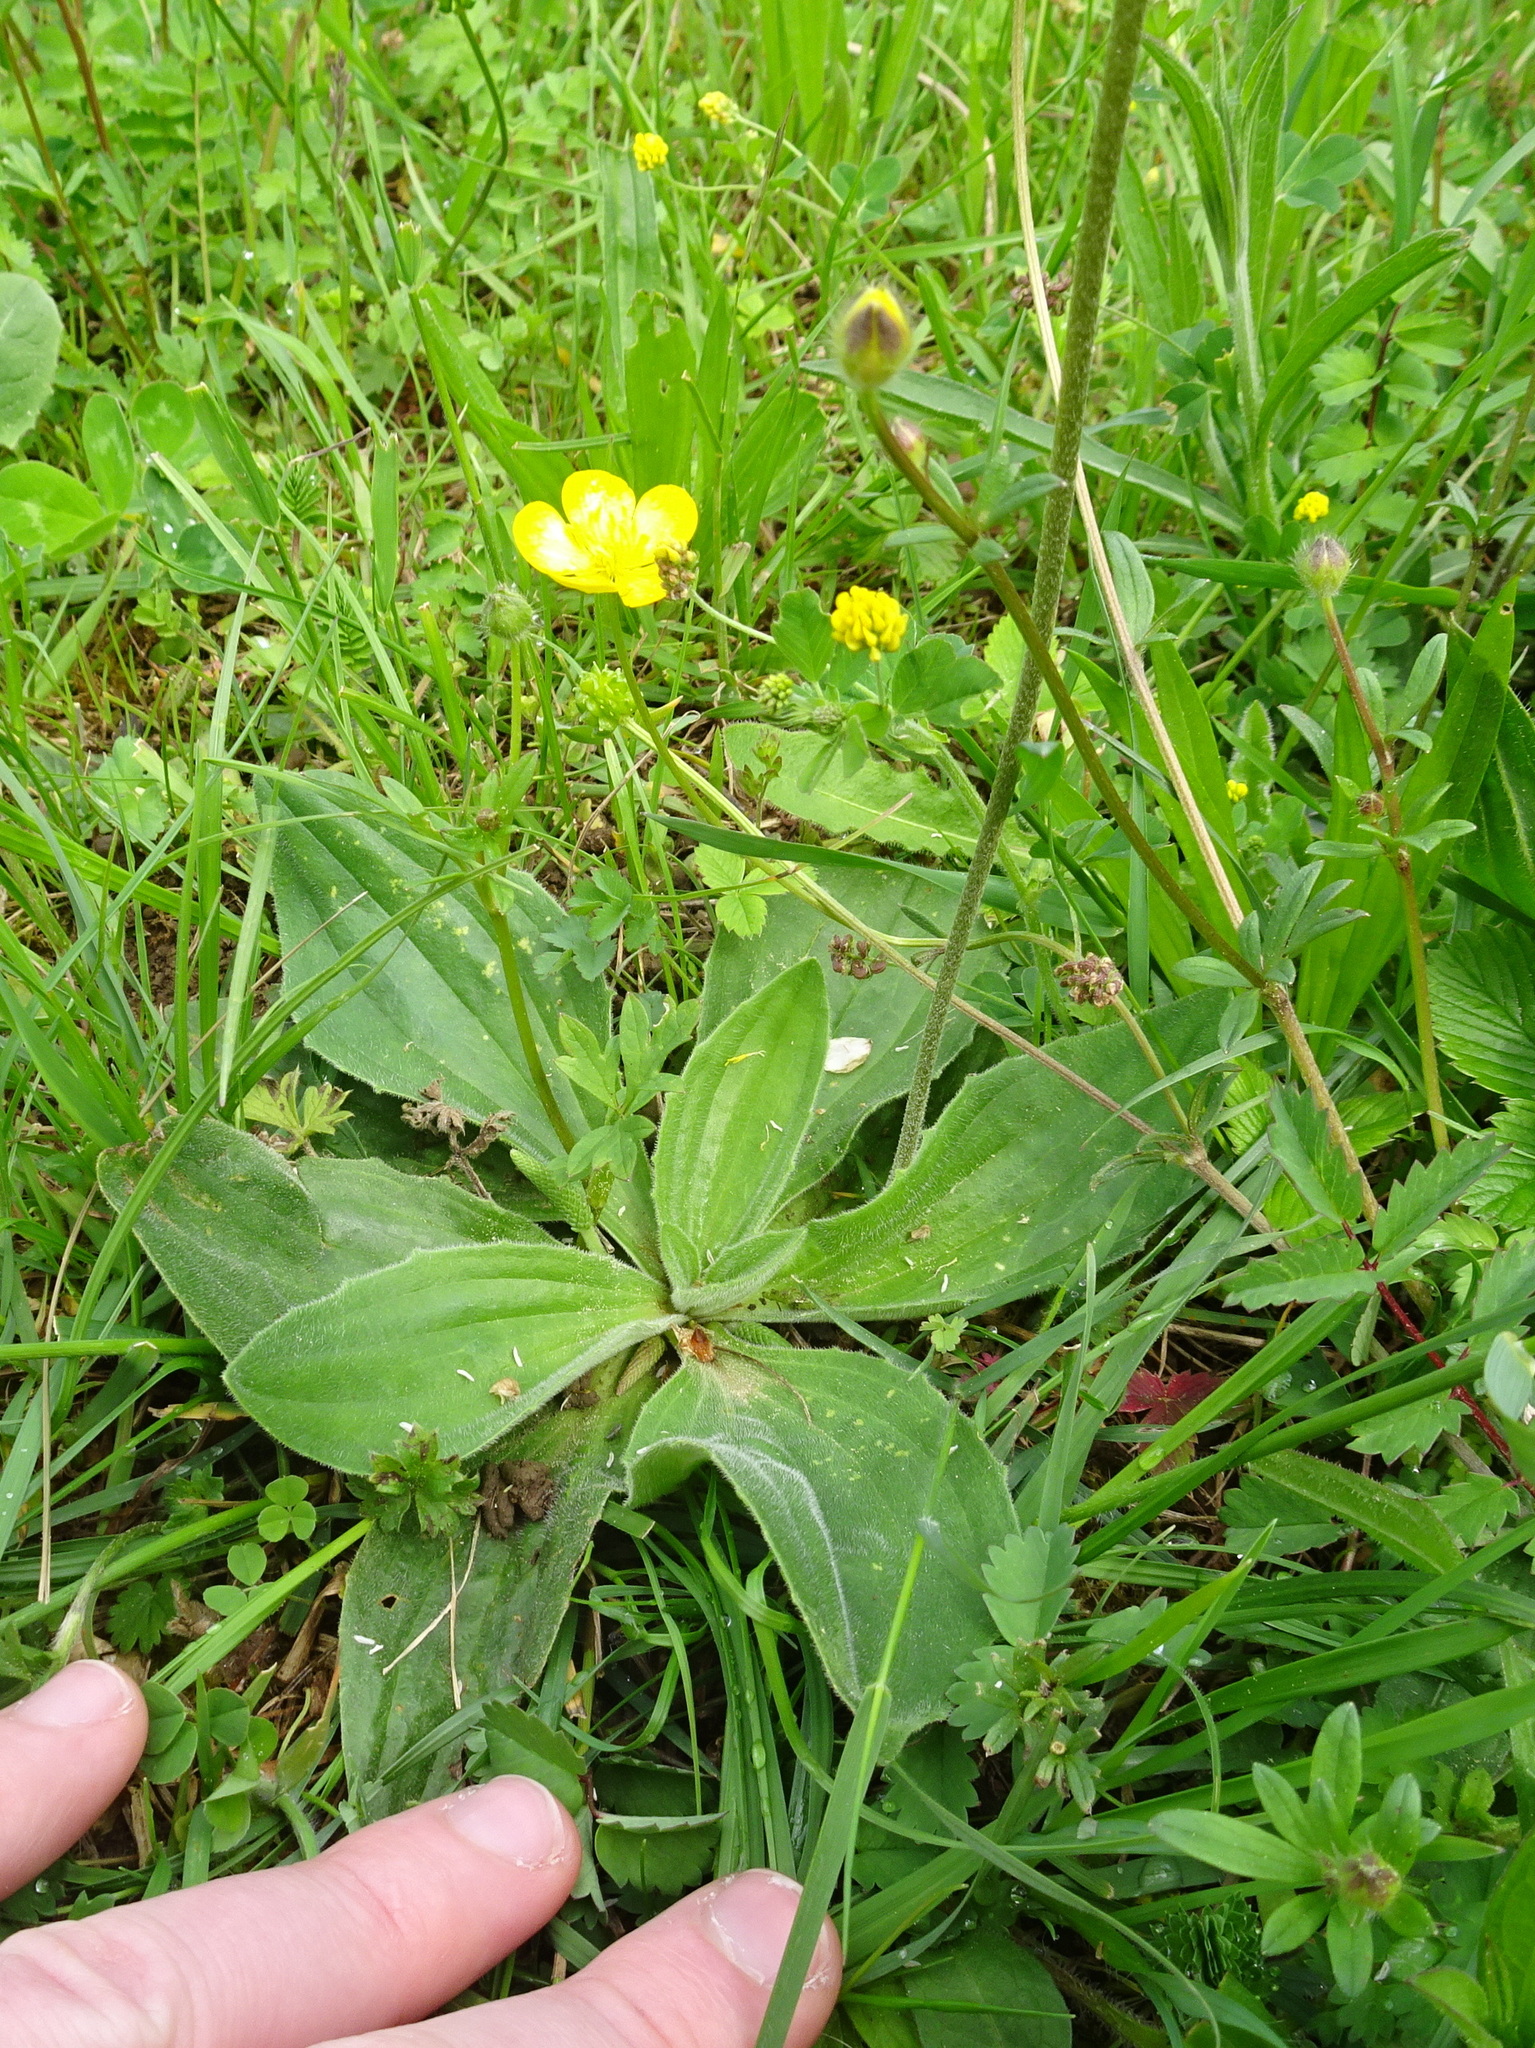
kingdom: Plantae
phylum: Tracheophyta
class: Magnoliopsida
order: Lamiales
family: Plantaginaceae
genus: Plantago
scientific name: Plantago media
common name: Hoary plantain
